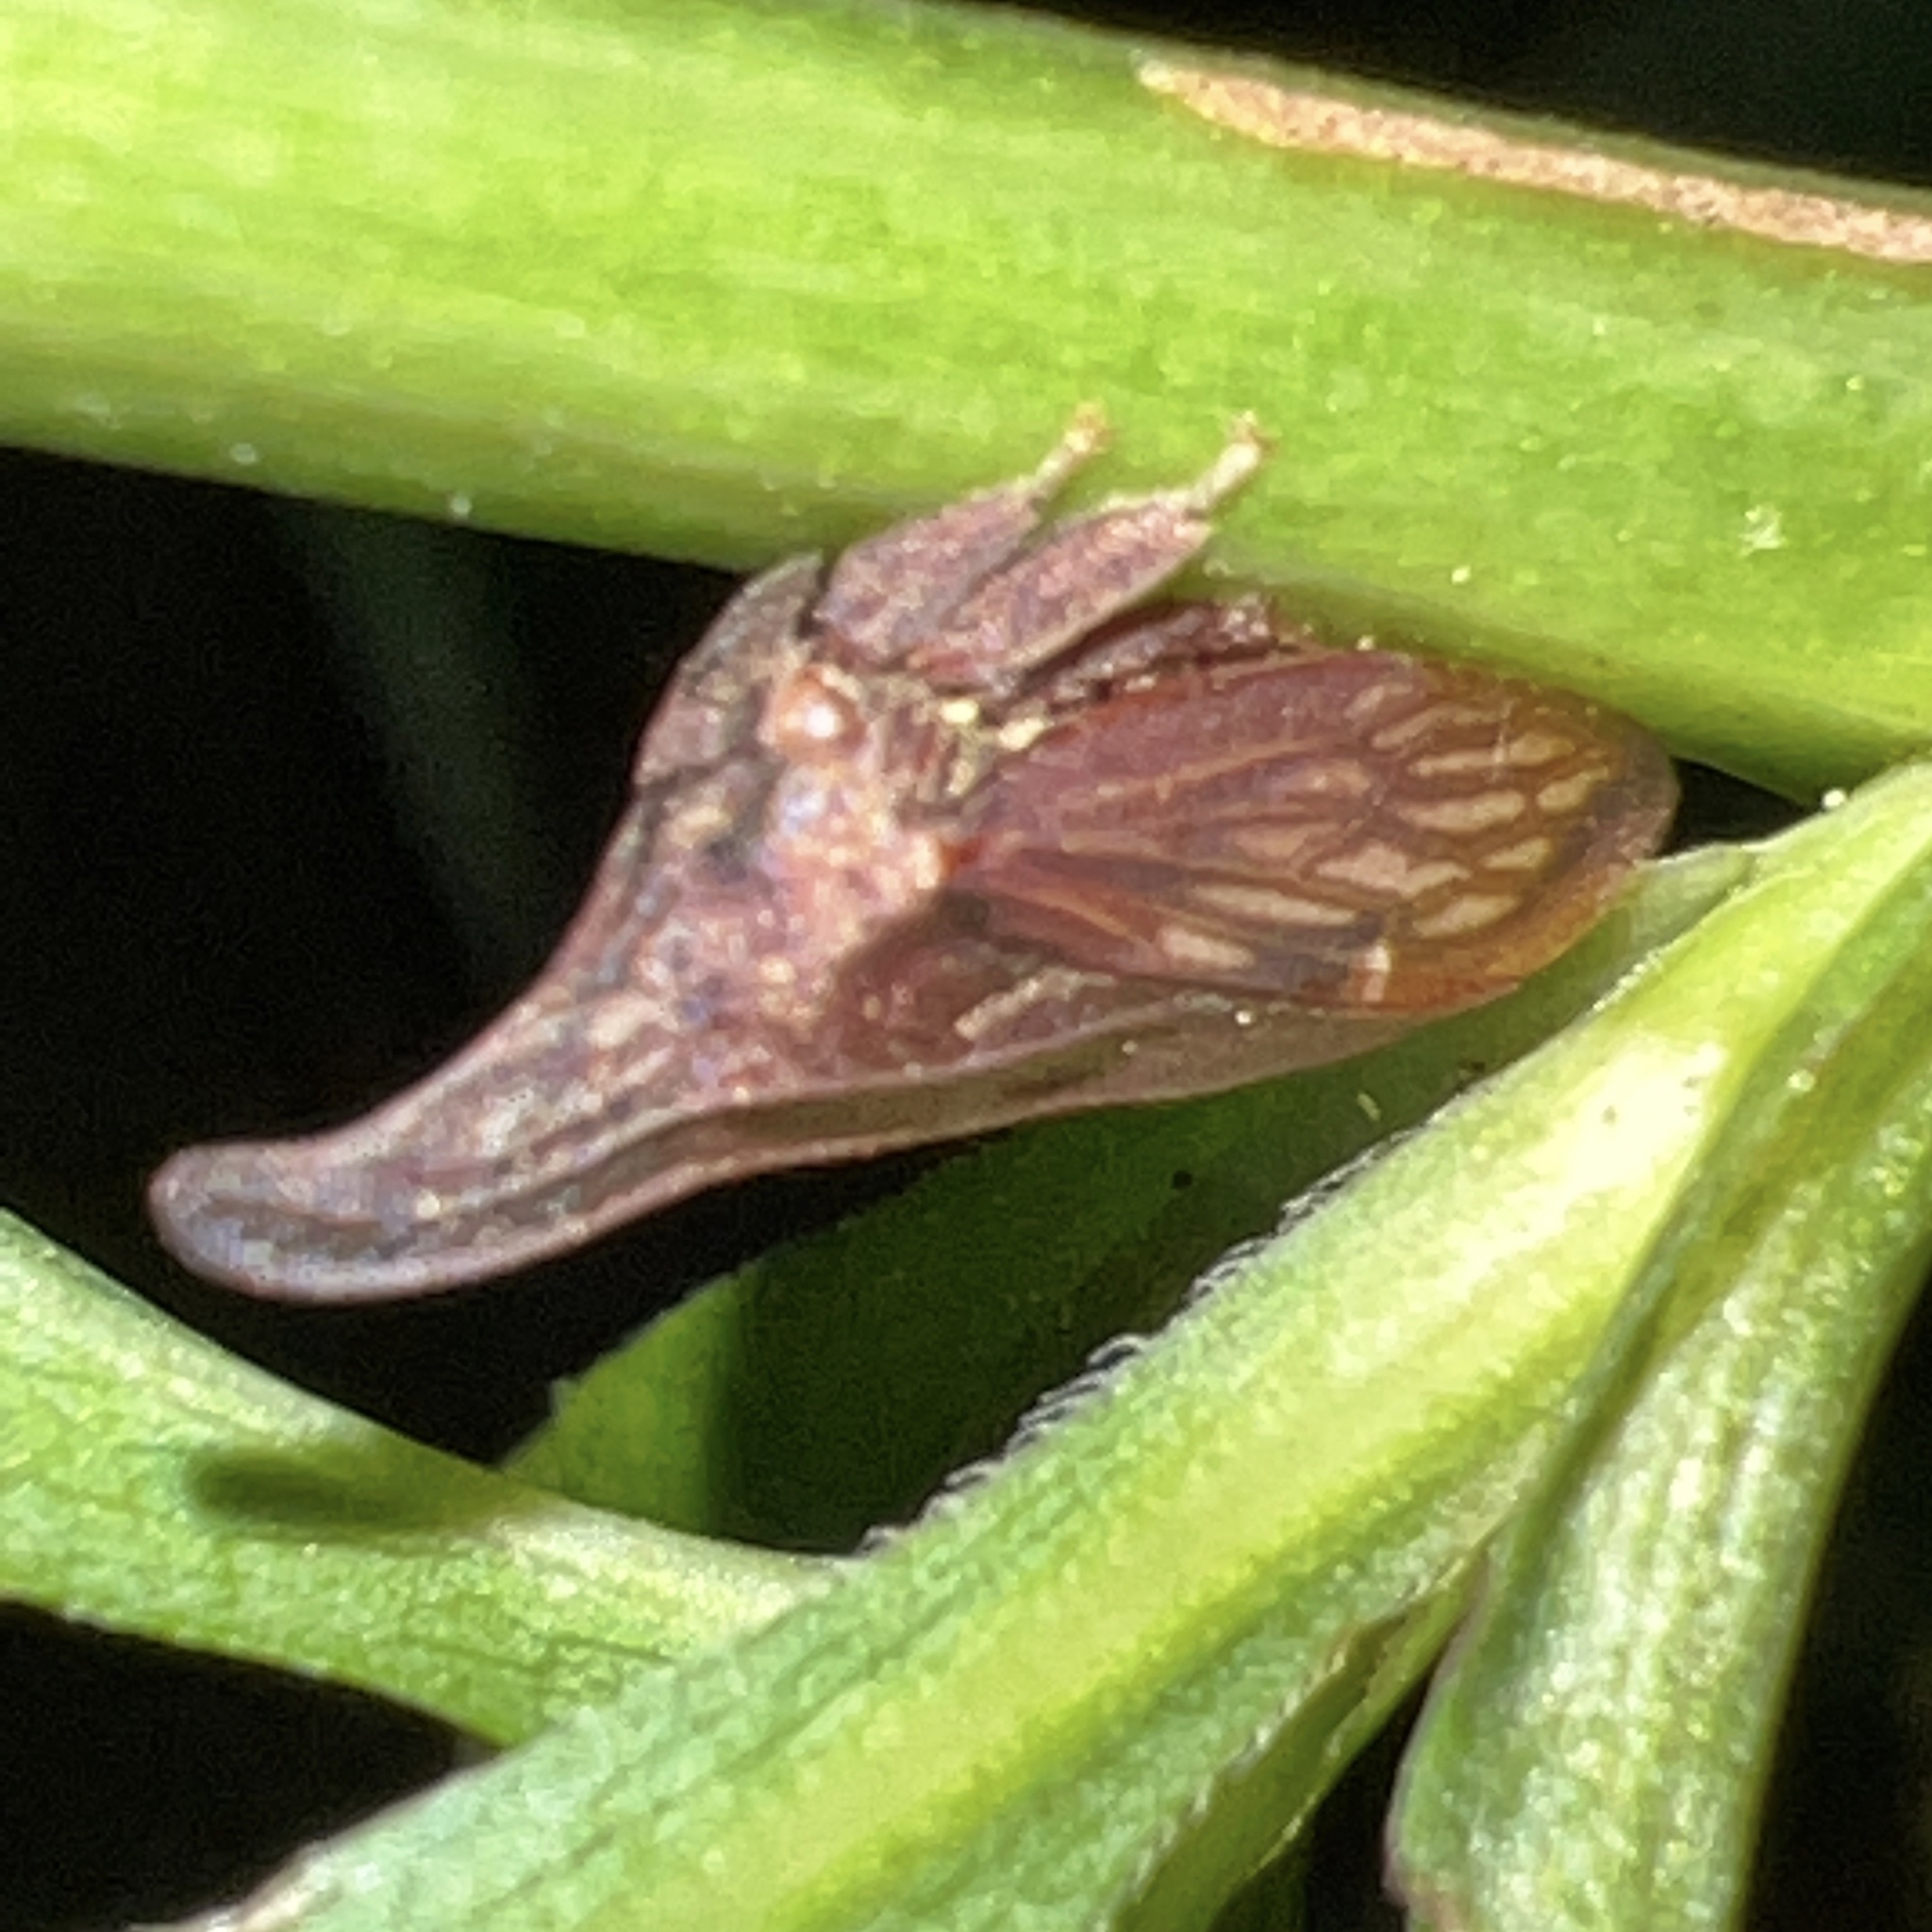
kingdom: Animalia
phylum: Arthropoda
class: Insecta
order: Hemiptera
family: Membracidae
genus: Enchenopa
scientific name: Enchenopa latipes
